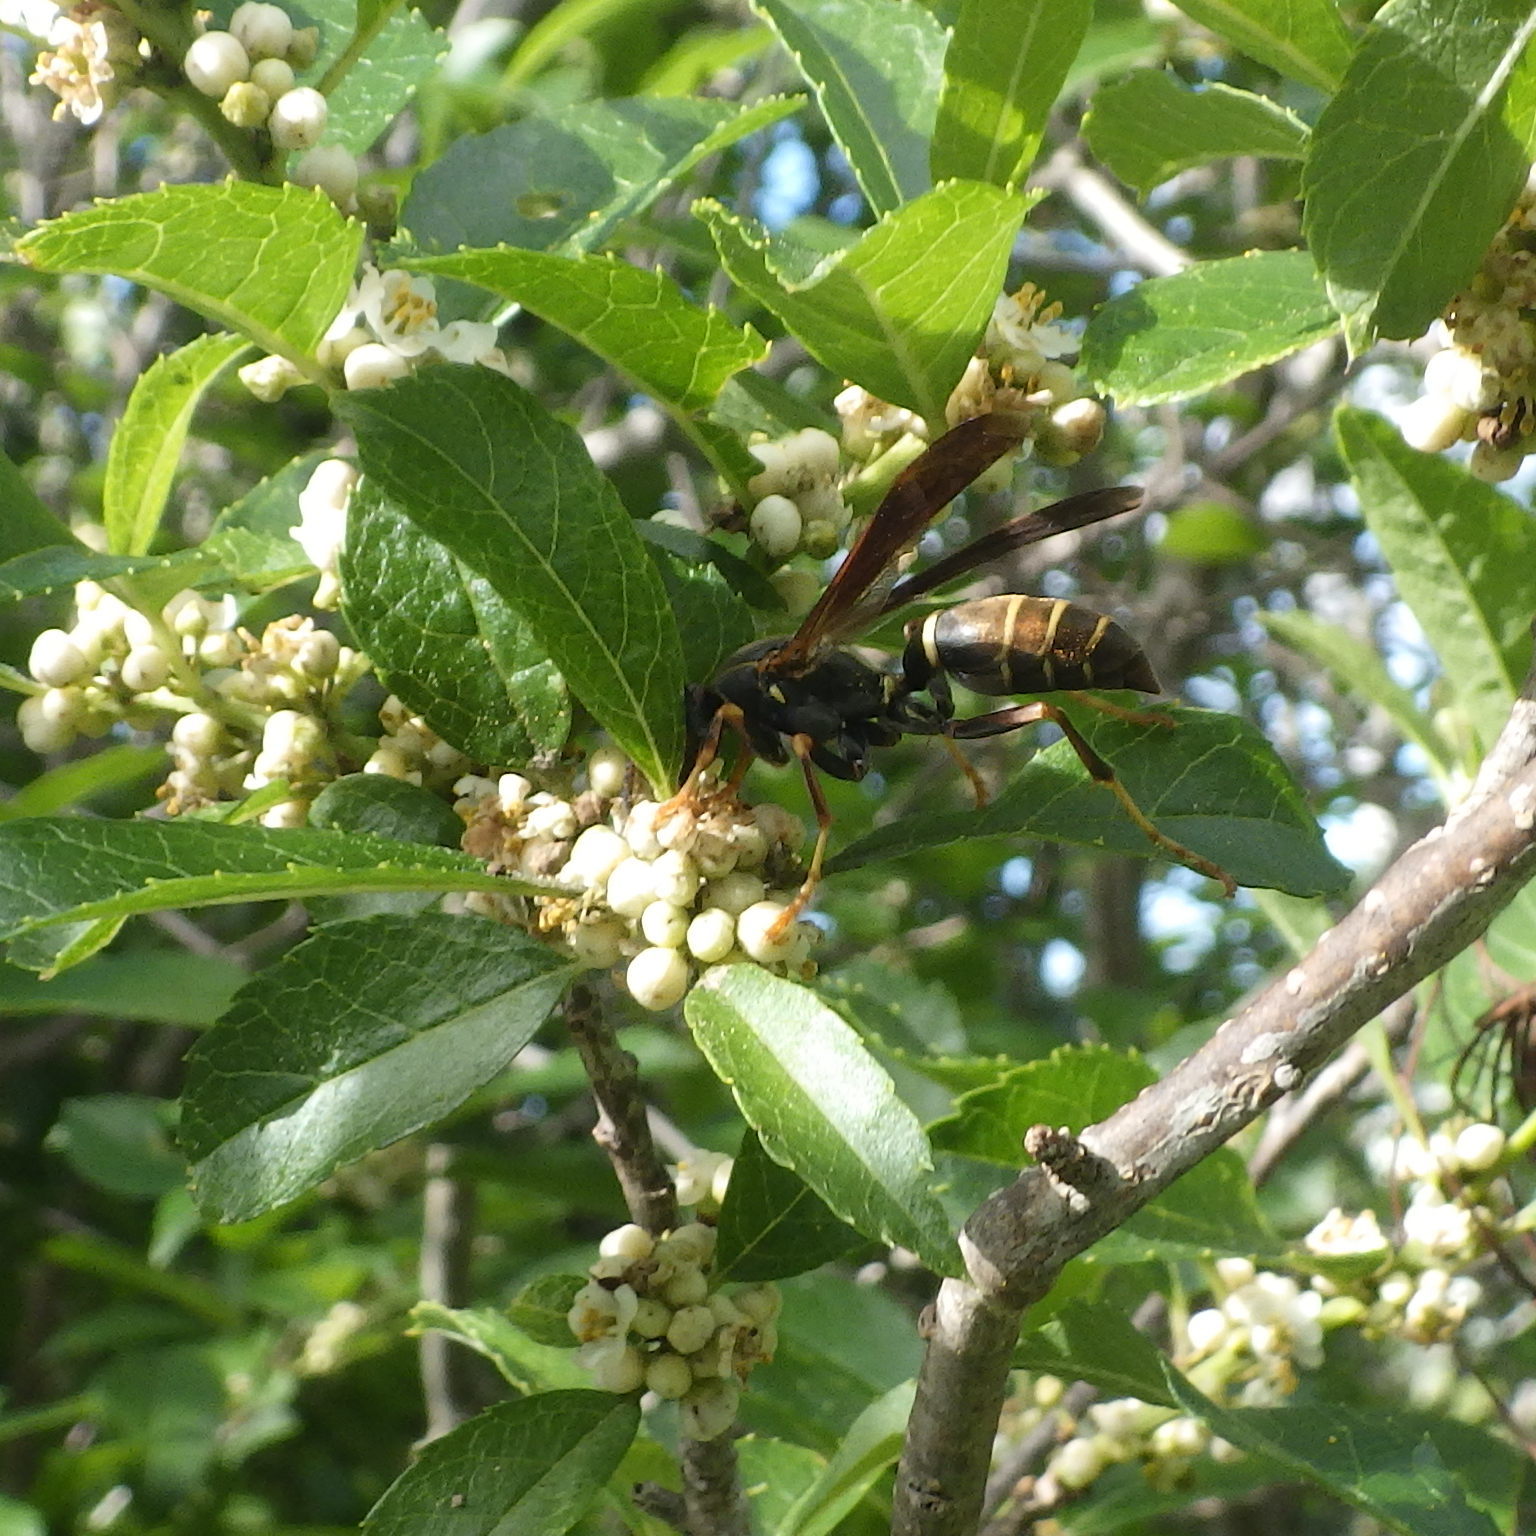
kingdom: Animalia
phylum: Arthropoda
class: Insecta
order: Hymenoptera
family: Eumenidae
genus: Polistes
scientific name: Polistes fuscatus
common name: Dark paper wasp
